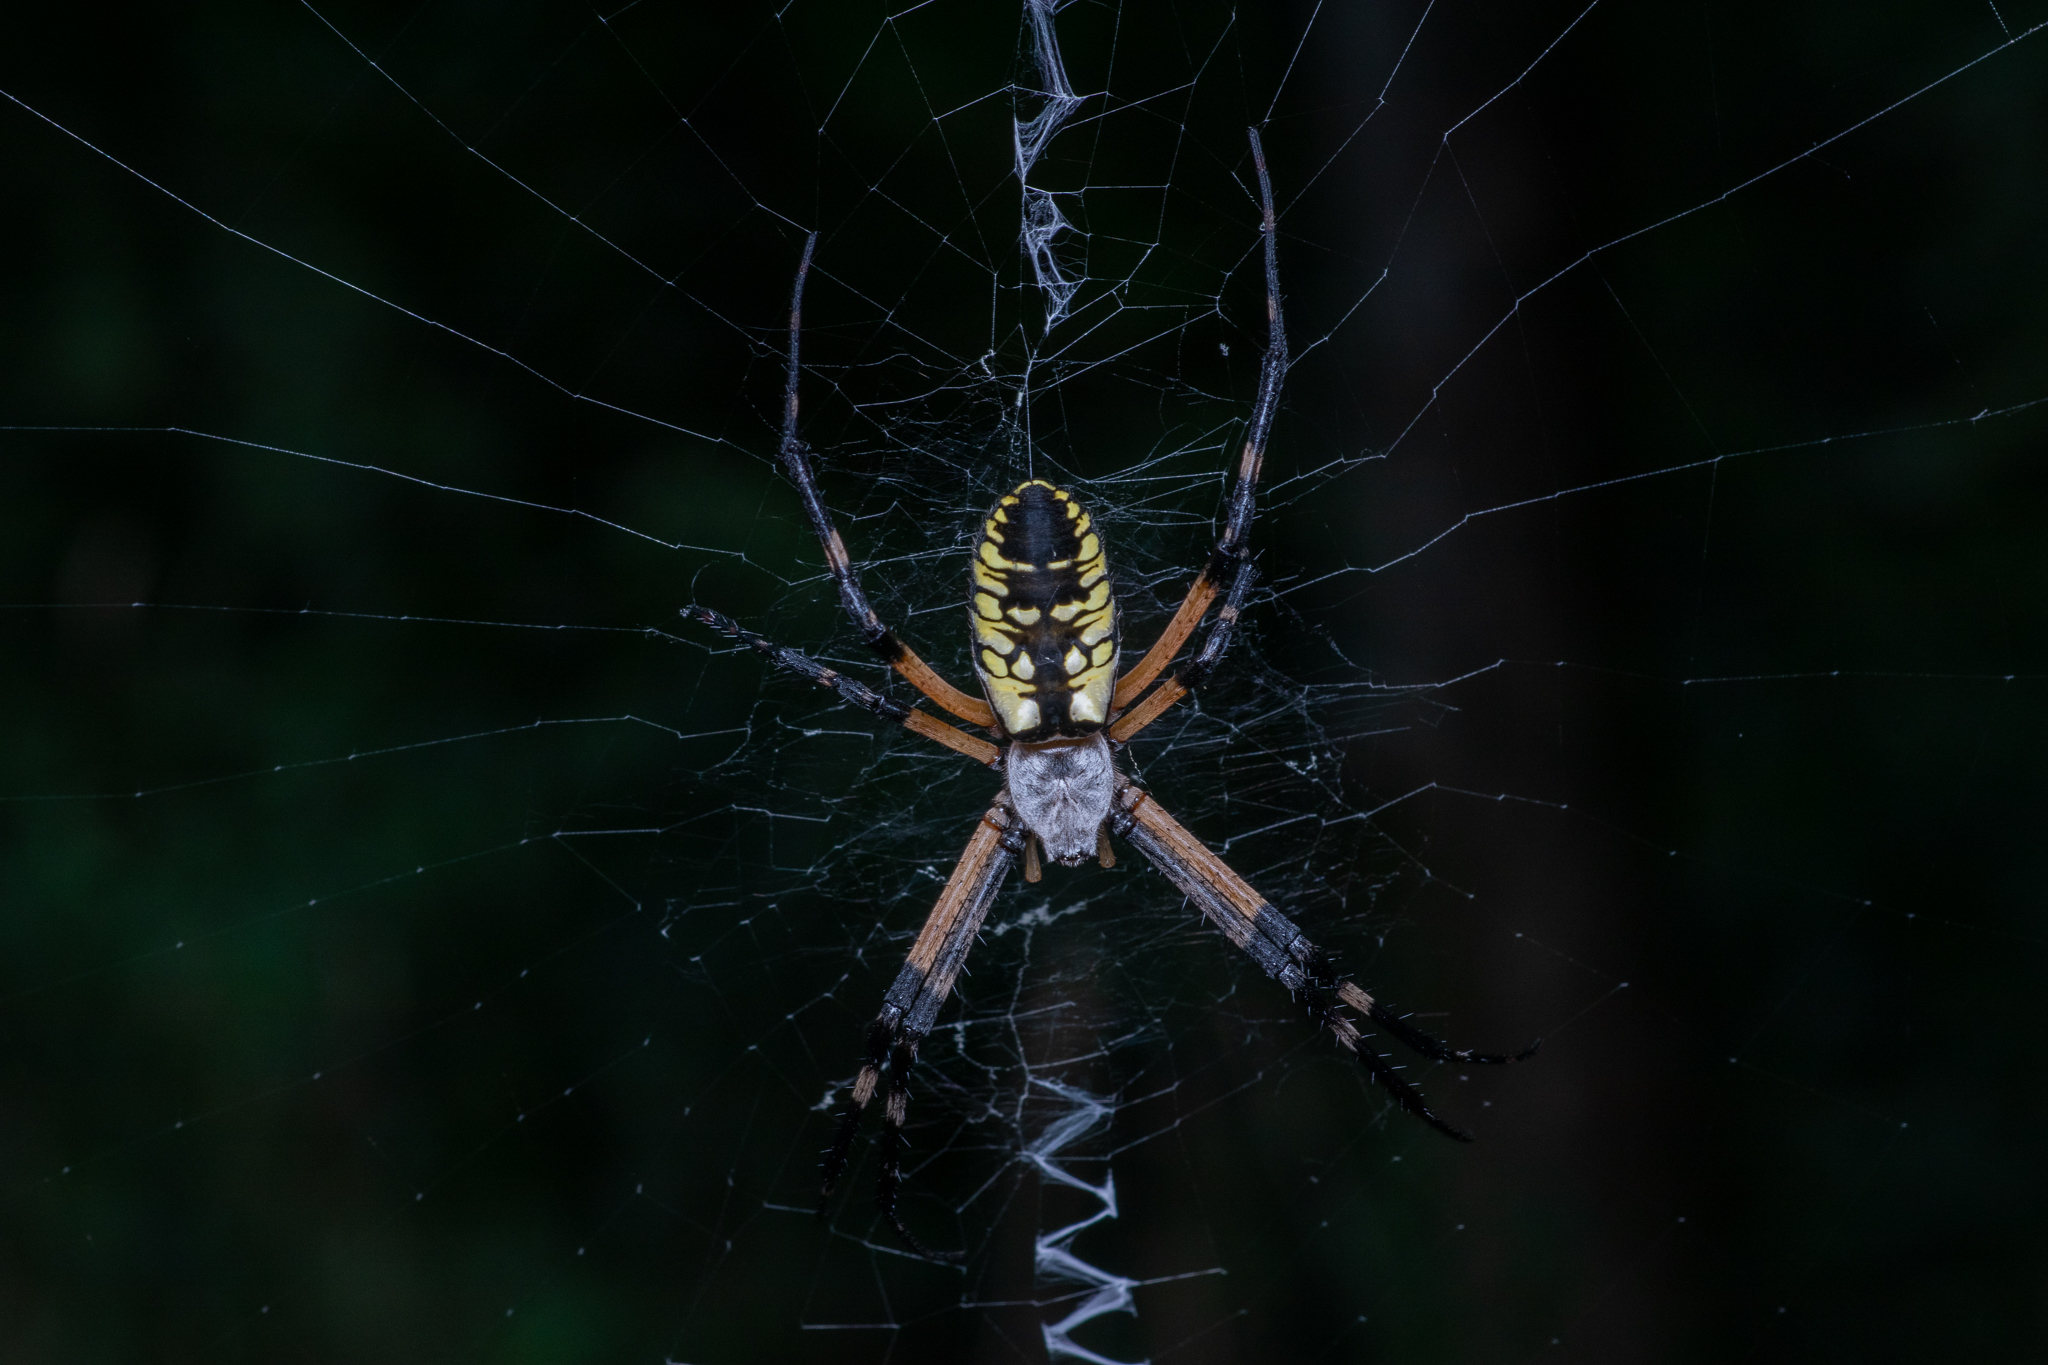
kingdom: Animalia
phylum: Arthropoda
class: Arachnida
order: Araneae
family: Araneidae
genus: Argiope
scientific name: Argiope aurantia
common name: Orb weavers
